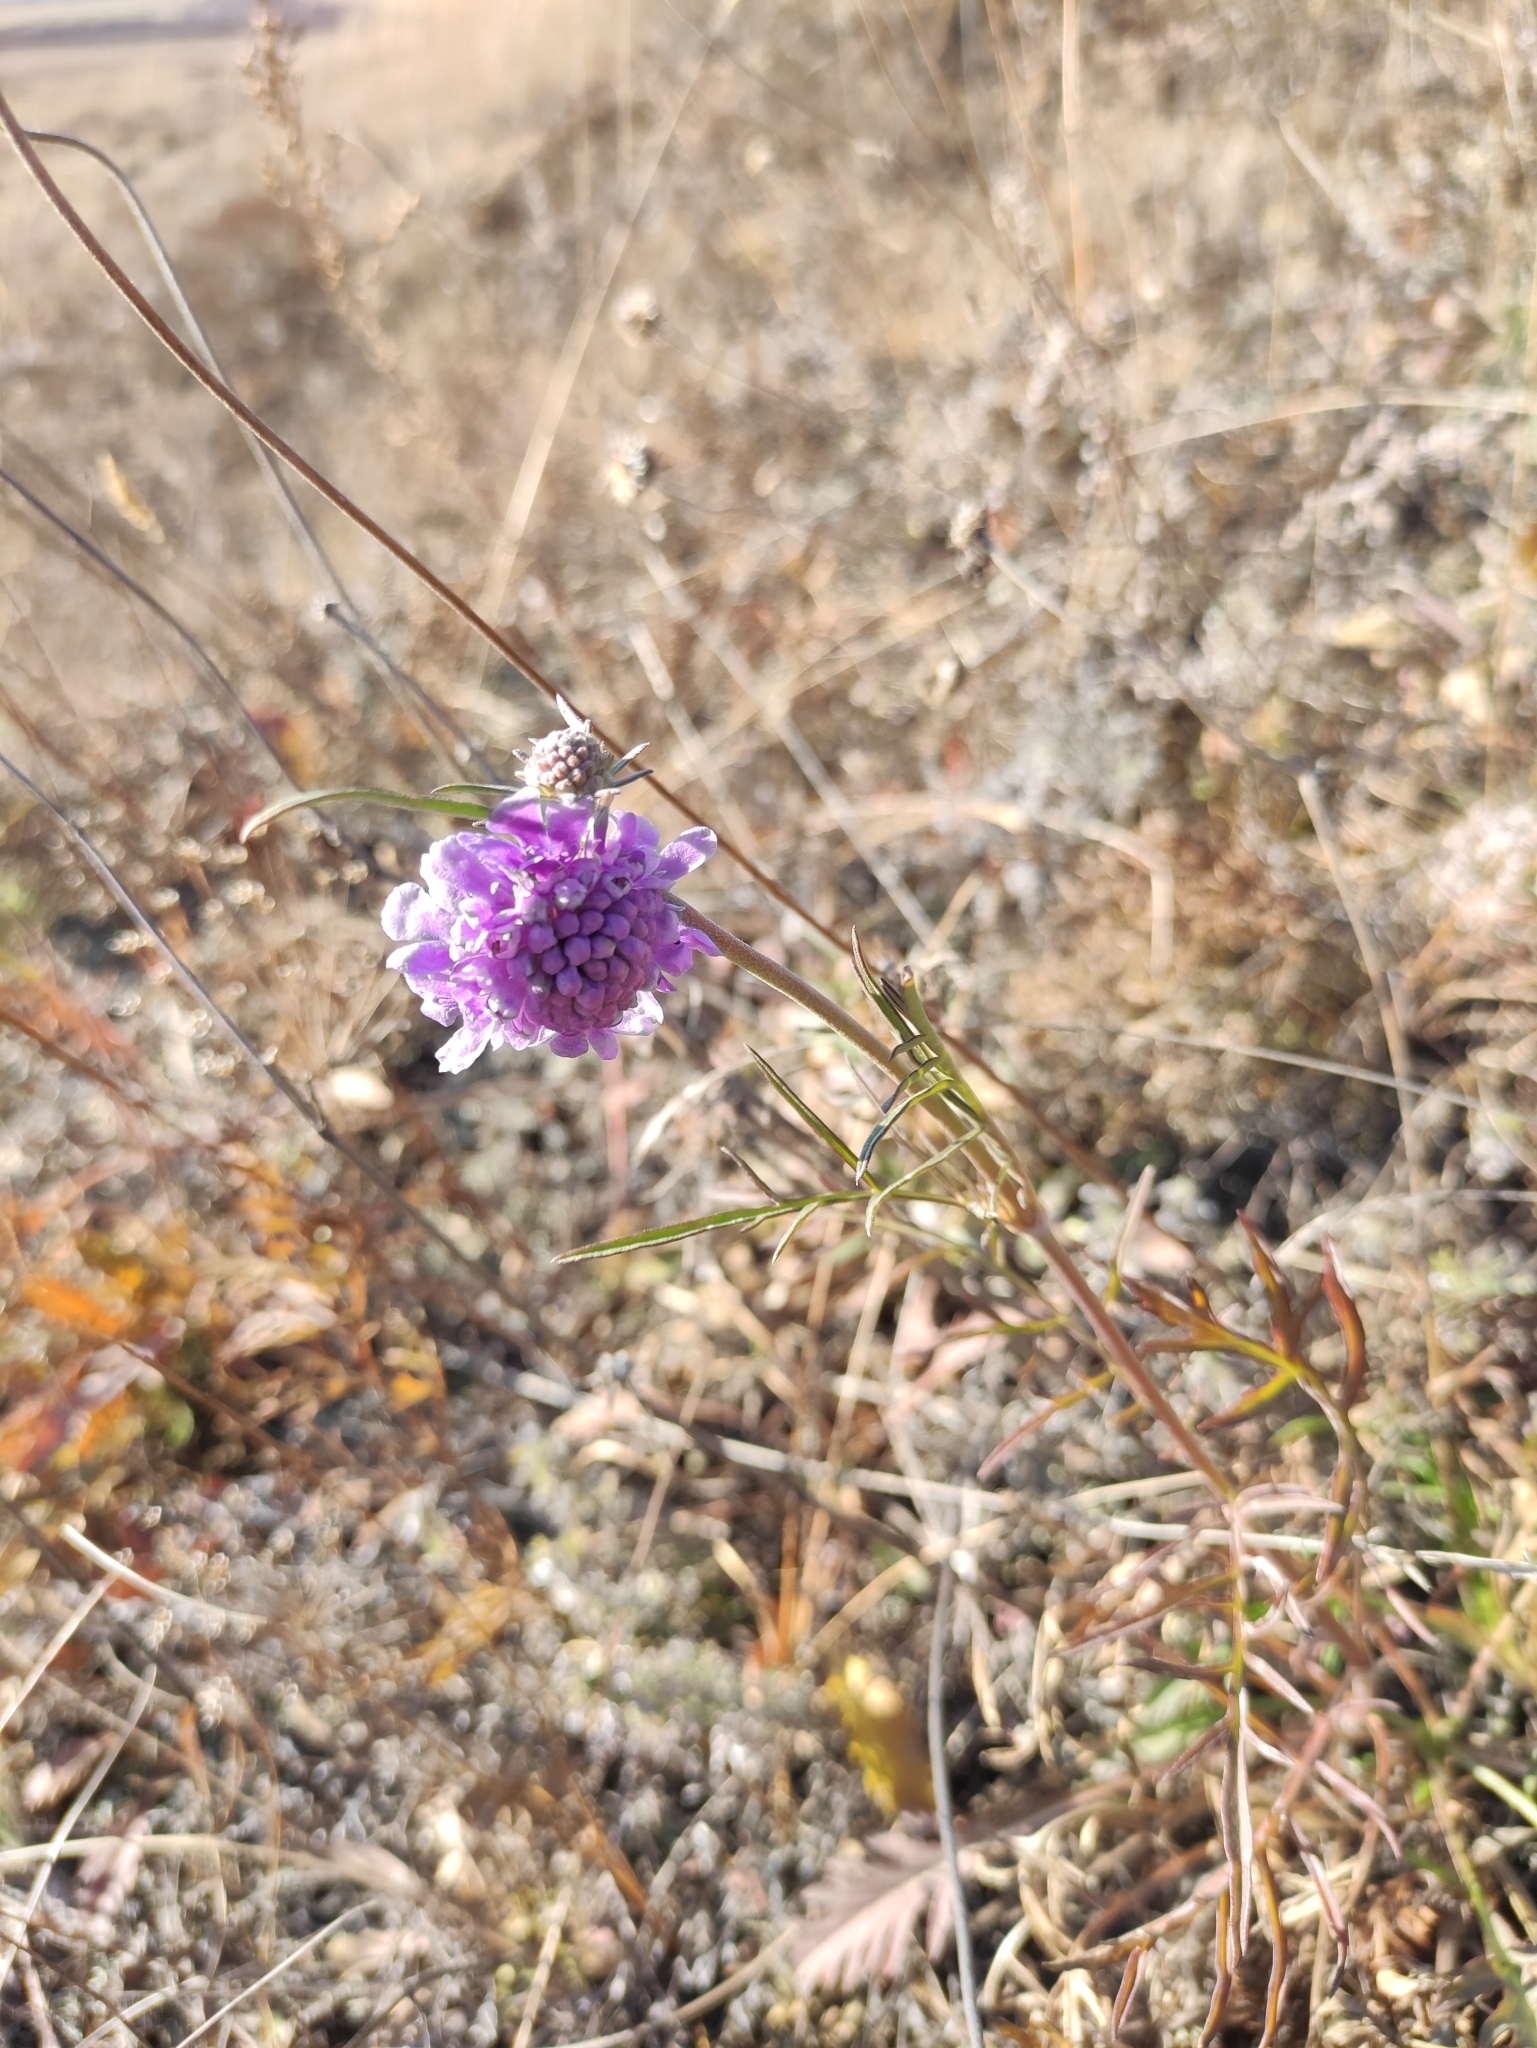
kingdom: Plantae
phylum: Tracheophyta
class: Magnoliopsida
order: Dipsacales
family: Caprifoliaceae
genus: Scabiosa
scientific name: Scabiosa comosa
